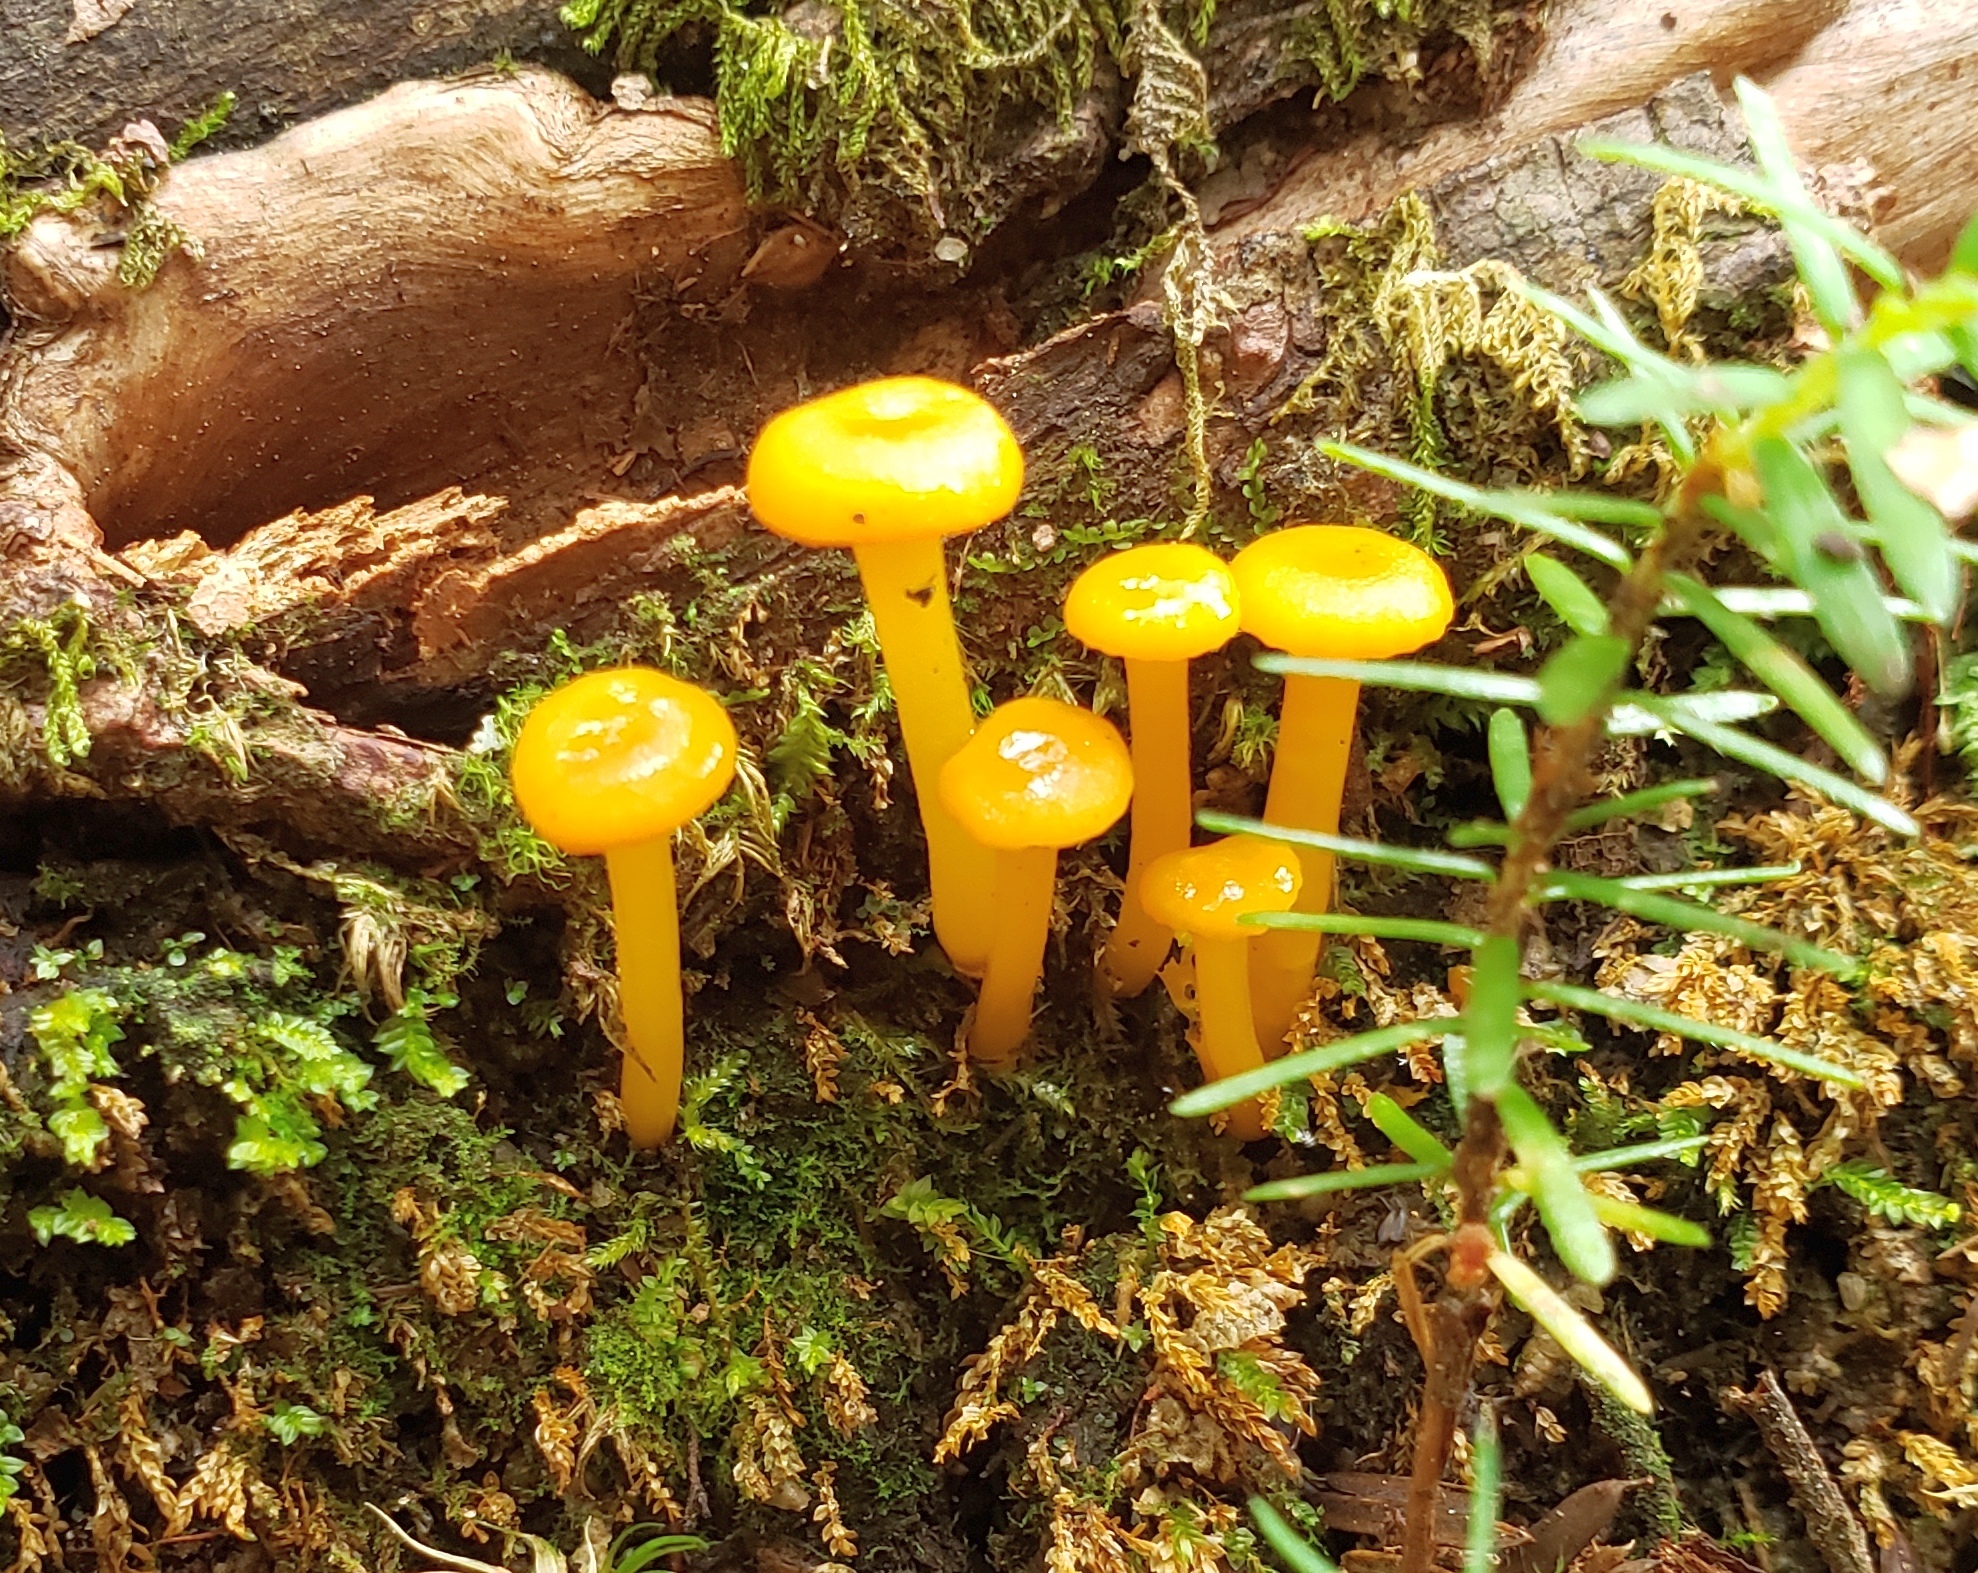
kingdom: Fungi
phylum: Basidiomycota
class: Agaricomycetes
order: Agaricales
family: Hygrophoraceae
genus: Gloioxanthomyces
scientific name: Gloioxanthomyces nitidus
